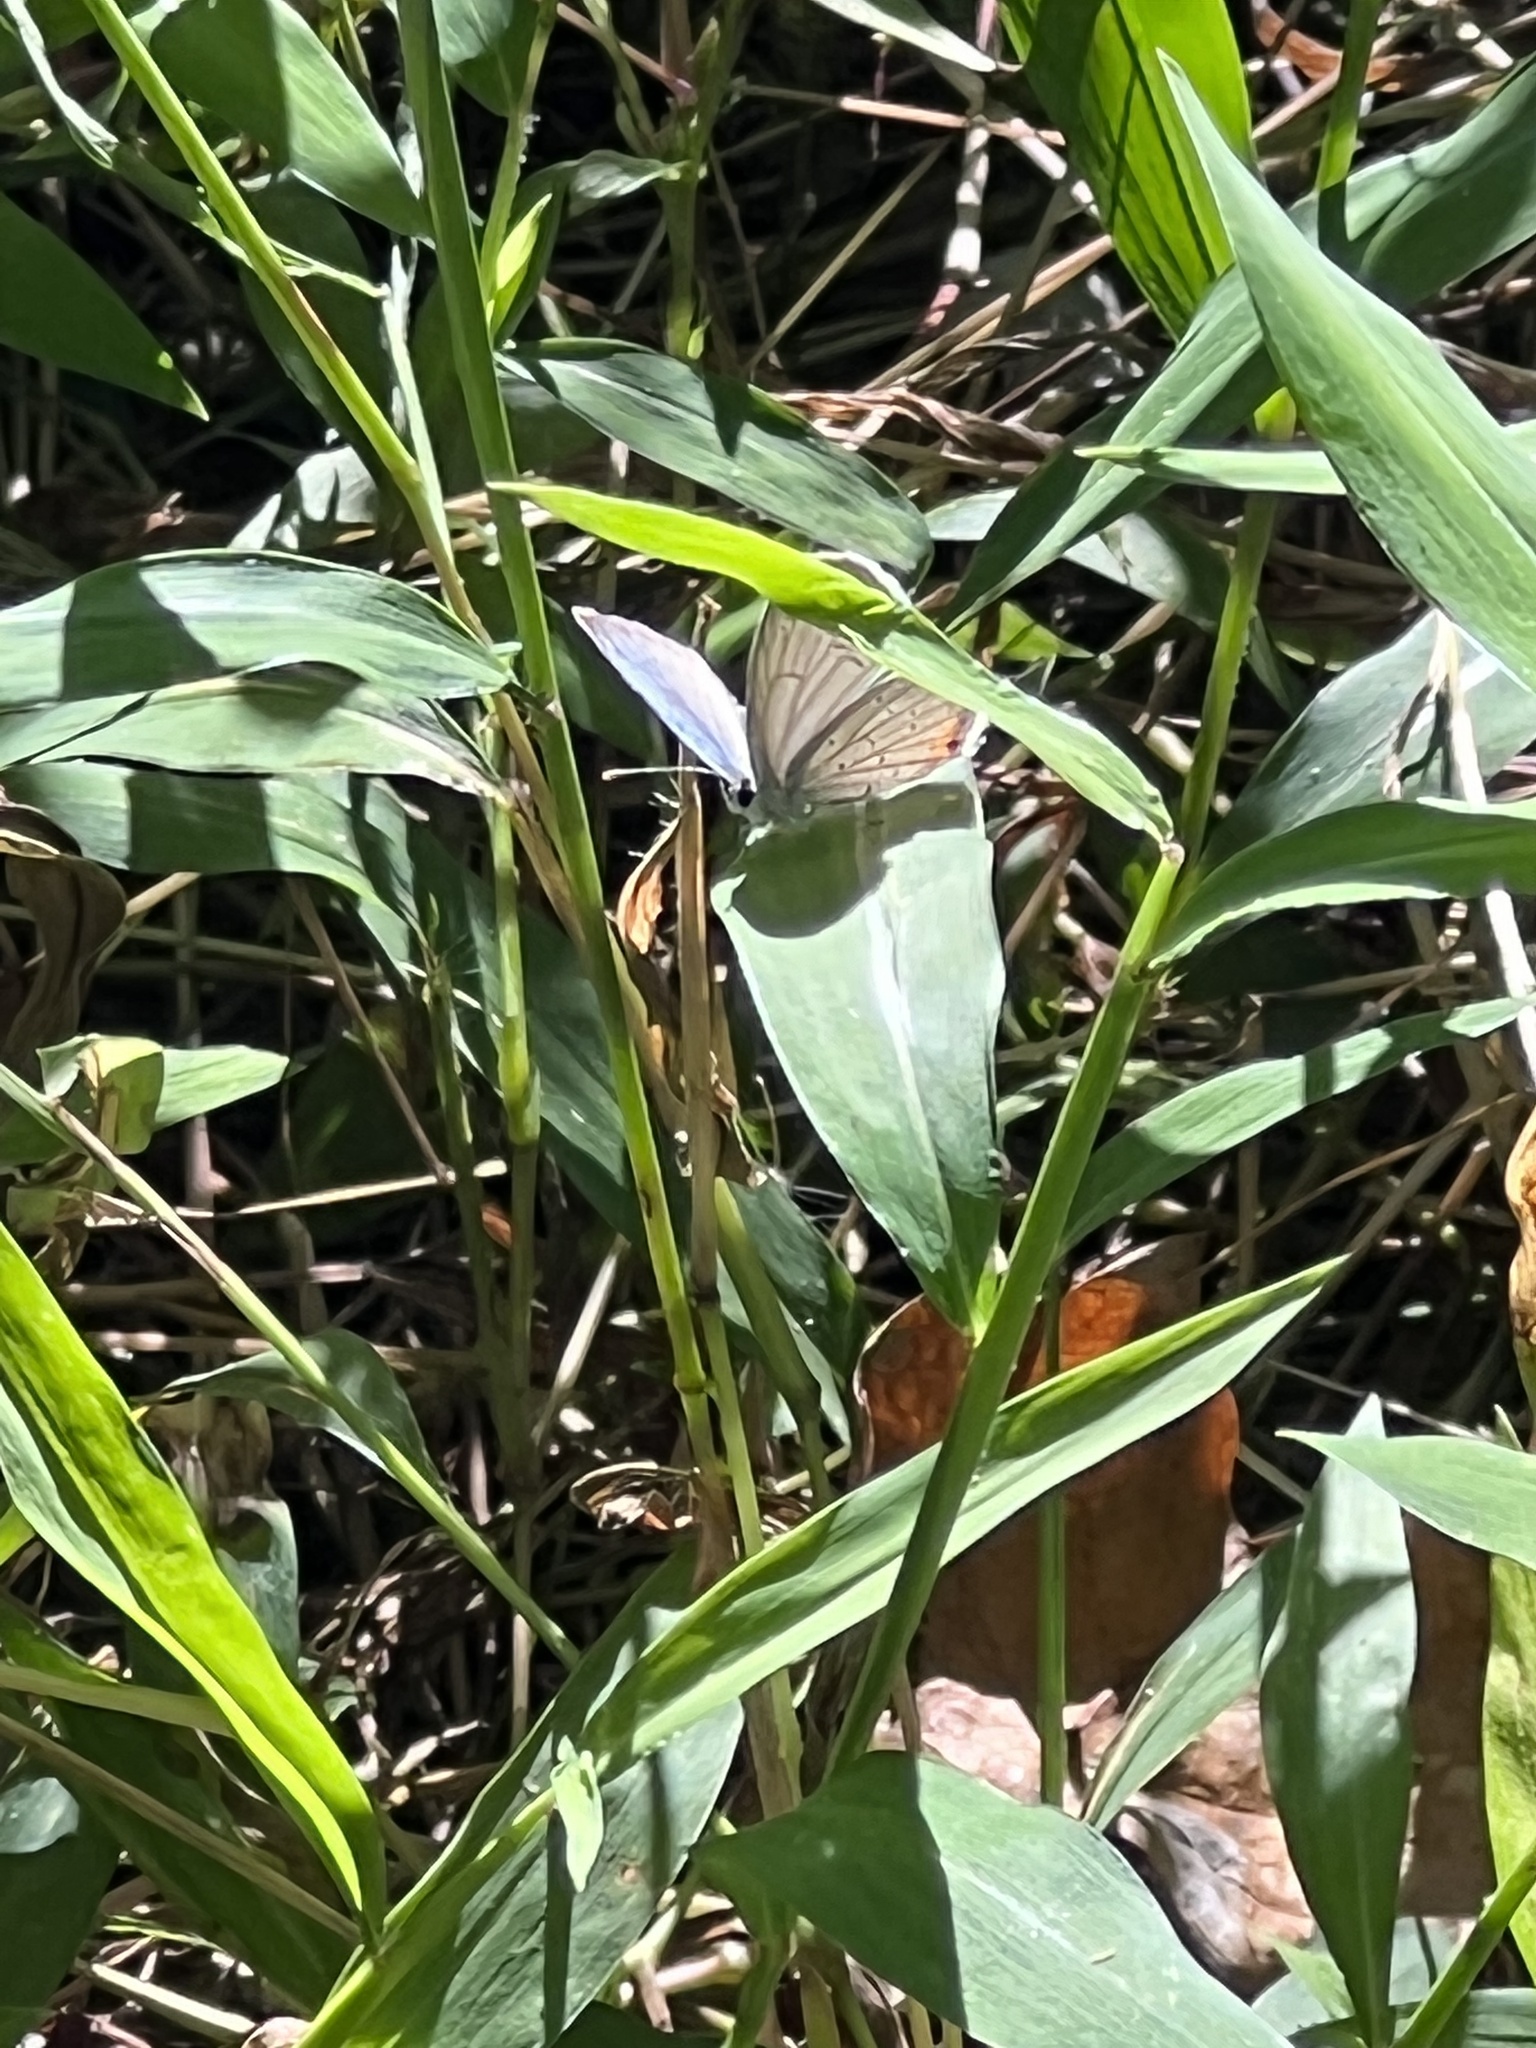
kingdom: Animalia
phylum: Arthropoda
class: Insecta
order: Lepidoptera
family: Lycaenidae
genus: Elkalyce
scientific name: Elkalyce comyntas
